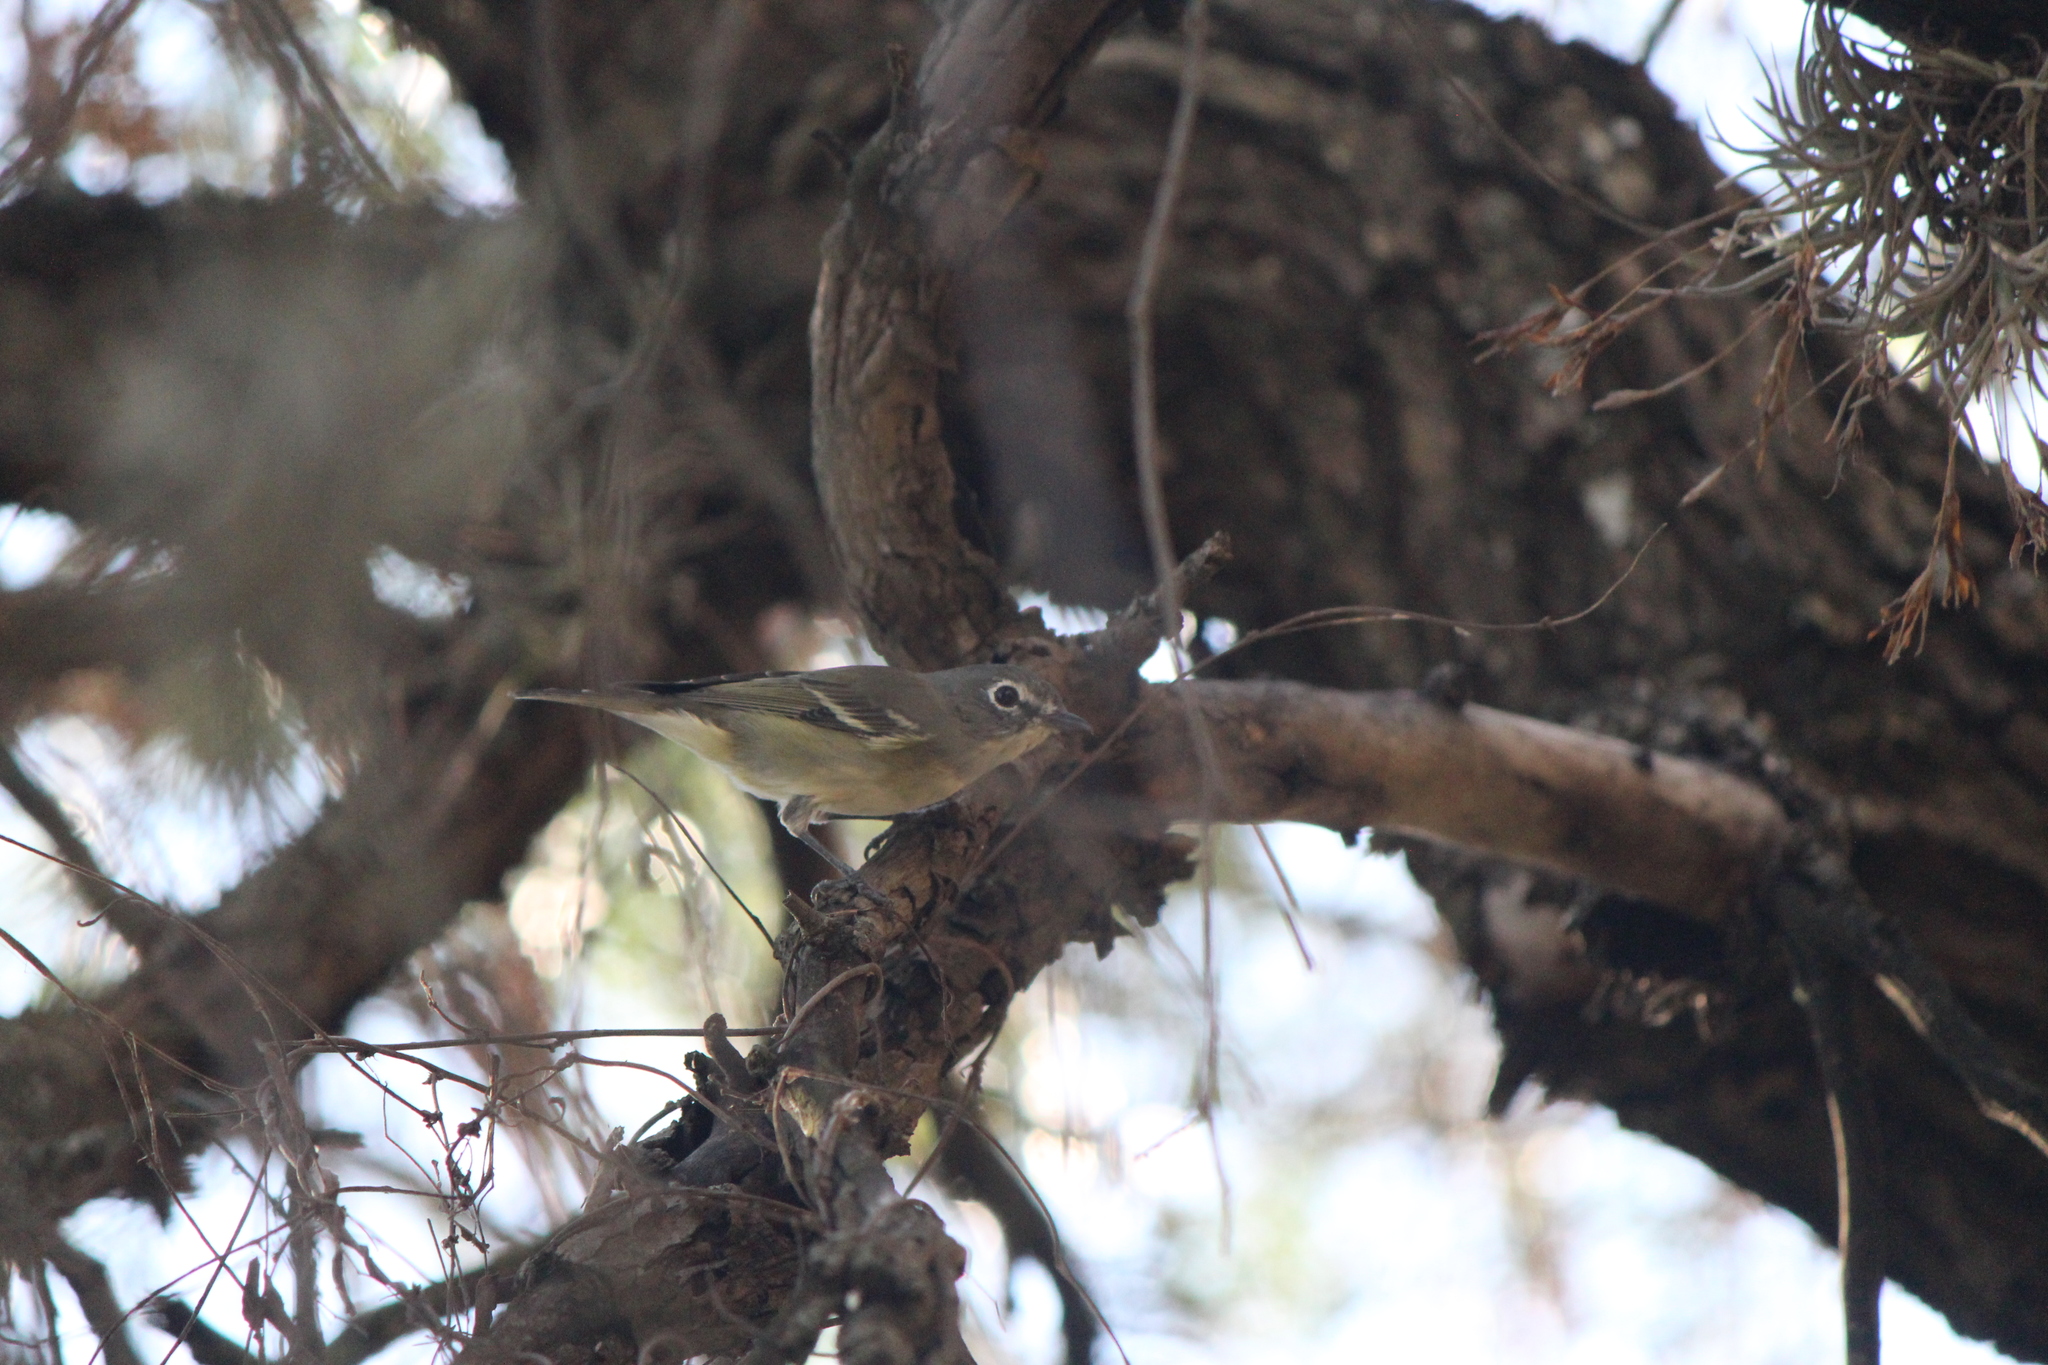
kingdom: Animalia
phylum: Chordata
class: Aves
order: Passeriformes
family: Vireonidae
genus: Vireo
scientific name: Vireo cassinii
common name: Cassin's vireo
